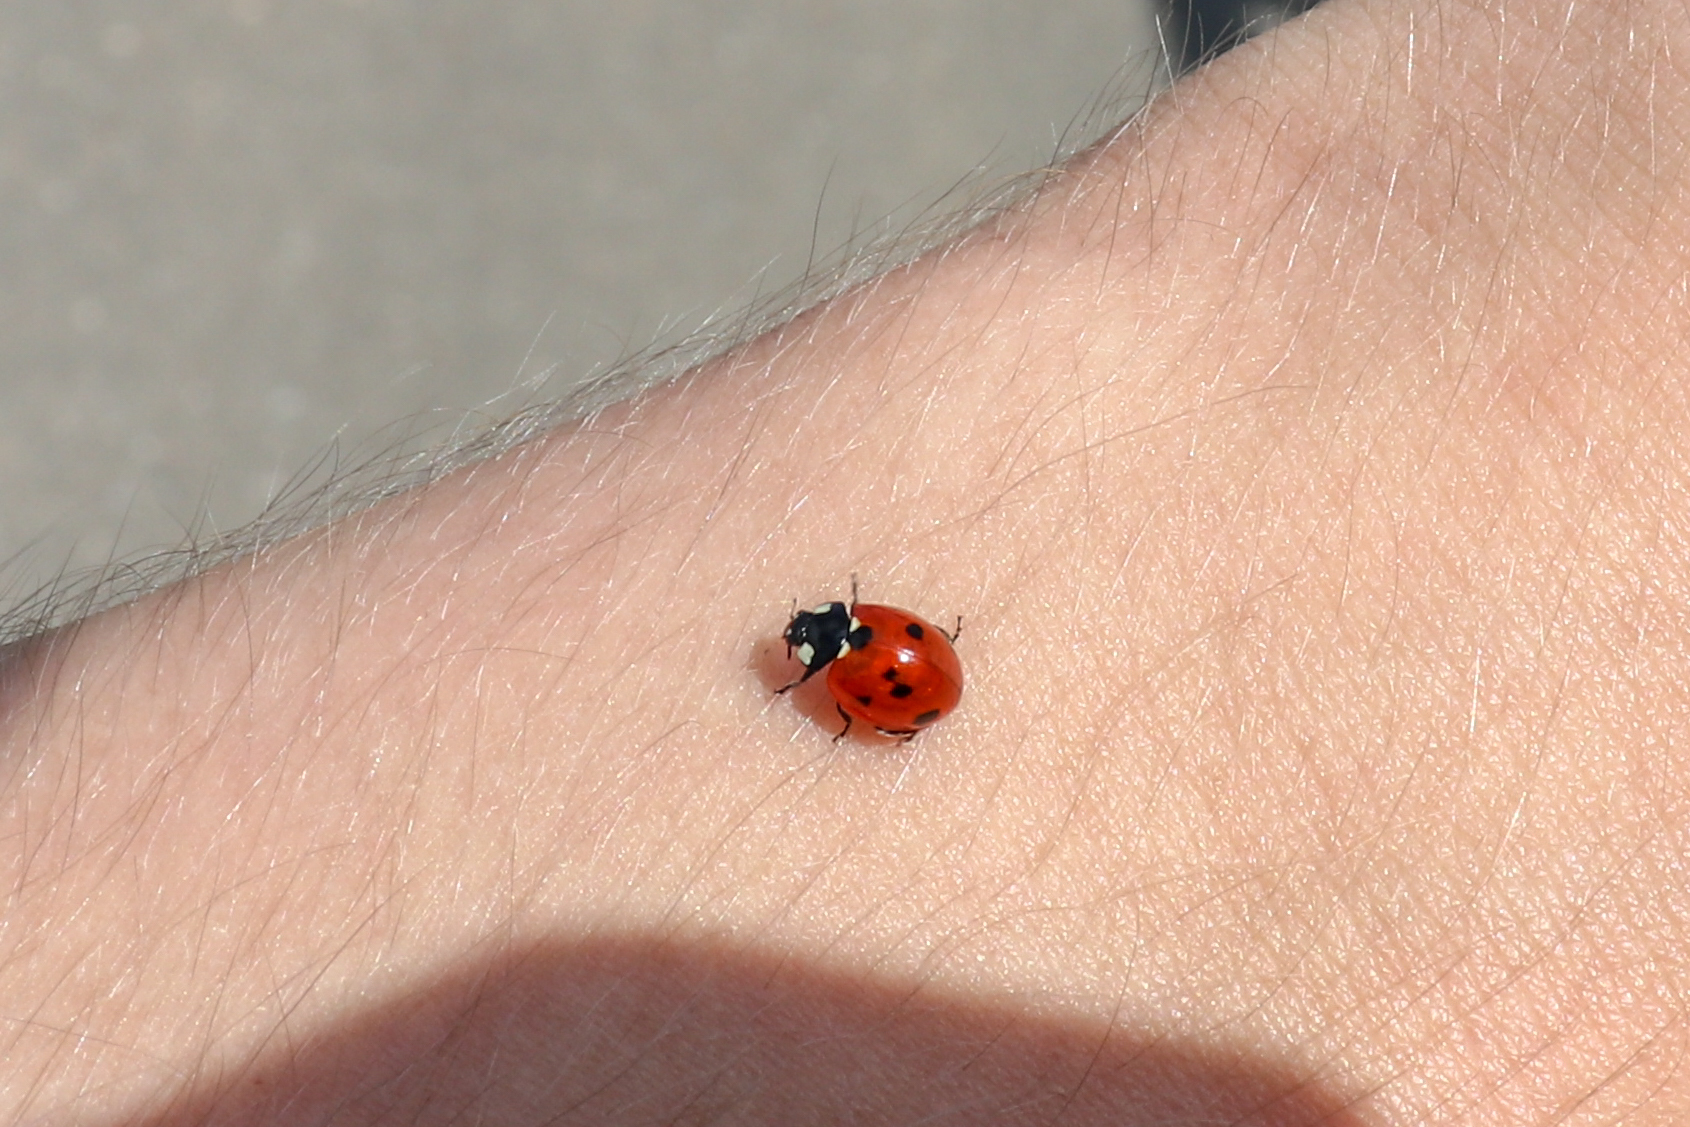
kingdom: Animalia
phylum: Arthropoda
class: Insecta
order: Coleoptera
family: Coccinellidae
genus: Coccinella
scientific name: Coccinella septempunctata
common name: Sevenspotted lady beetle
